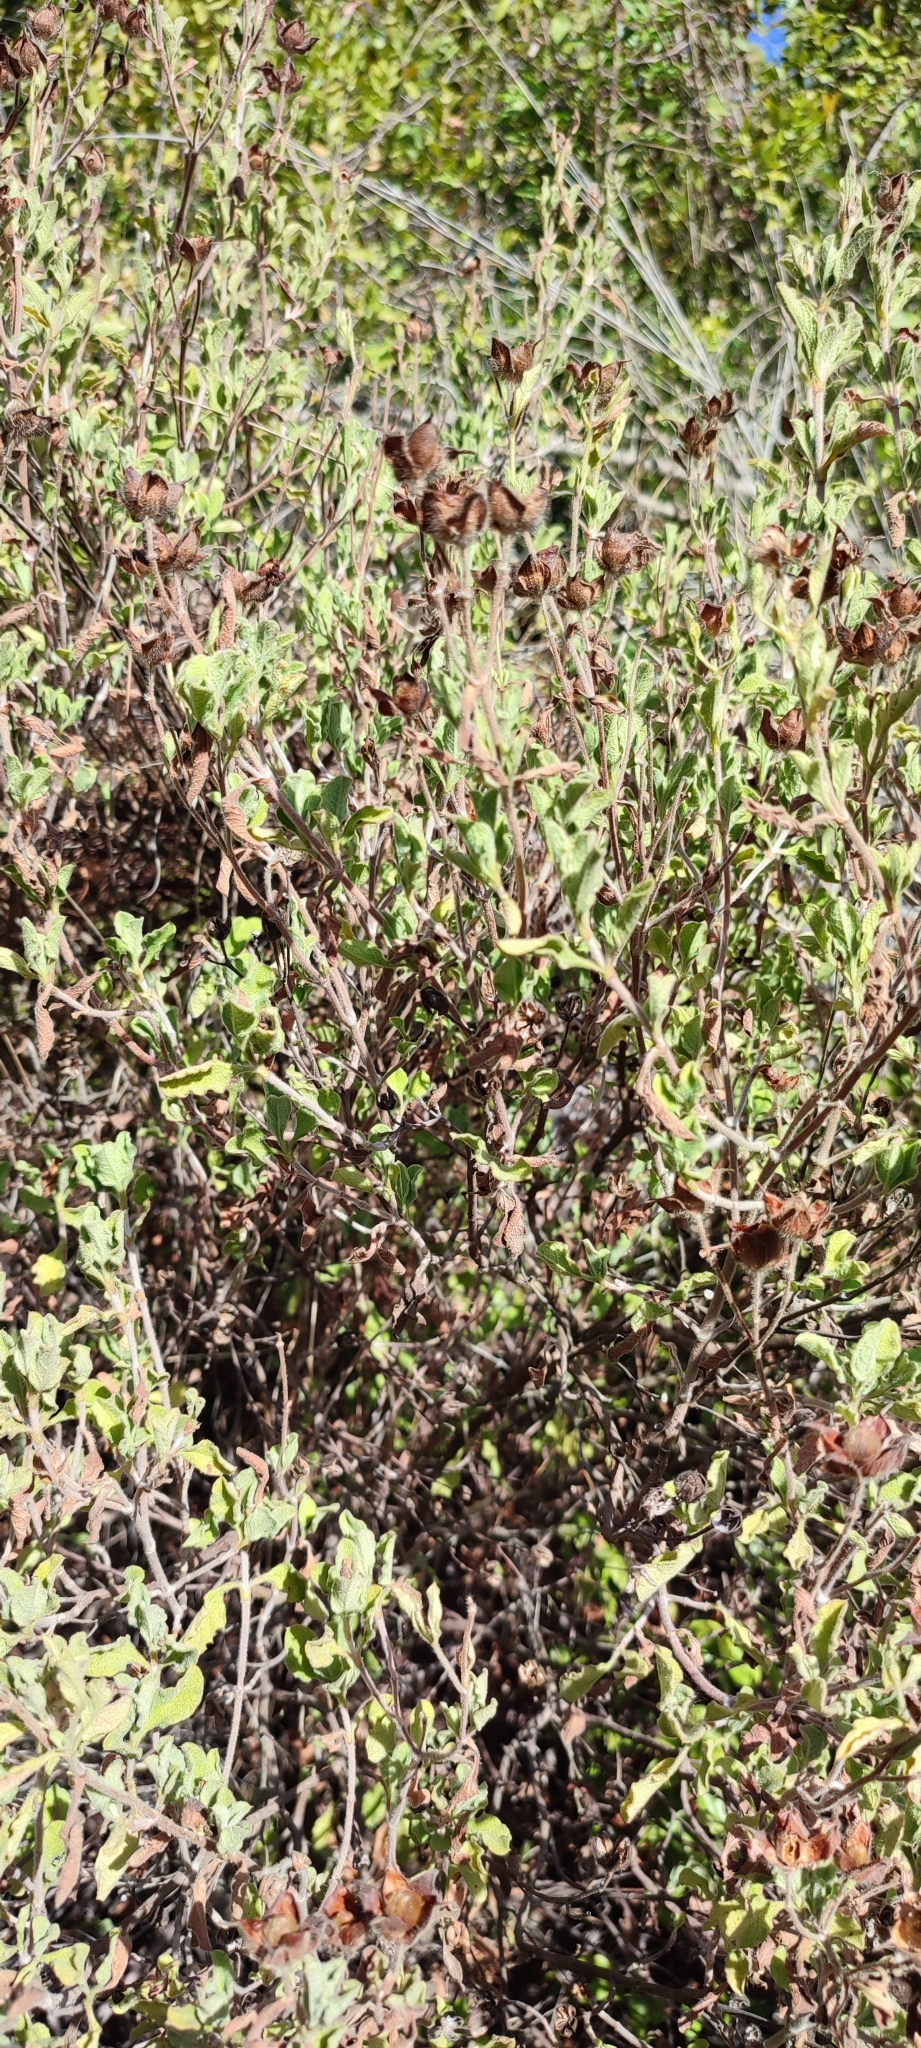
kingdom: Plantae
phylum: Tracheophyta
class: Magnoliopsida
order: Malvales
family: Cistaceae
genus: Cistus
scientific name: Cistus creticus
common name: Cretan rockrose
